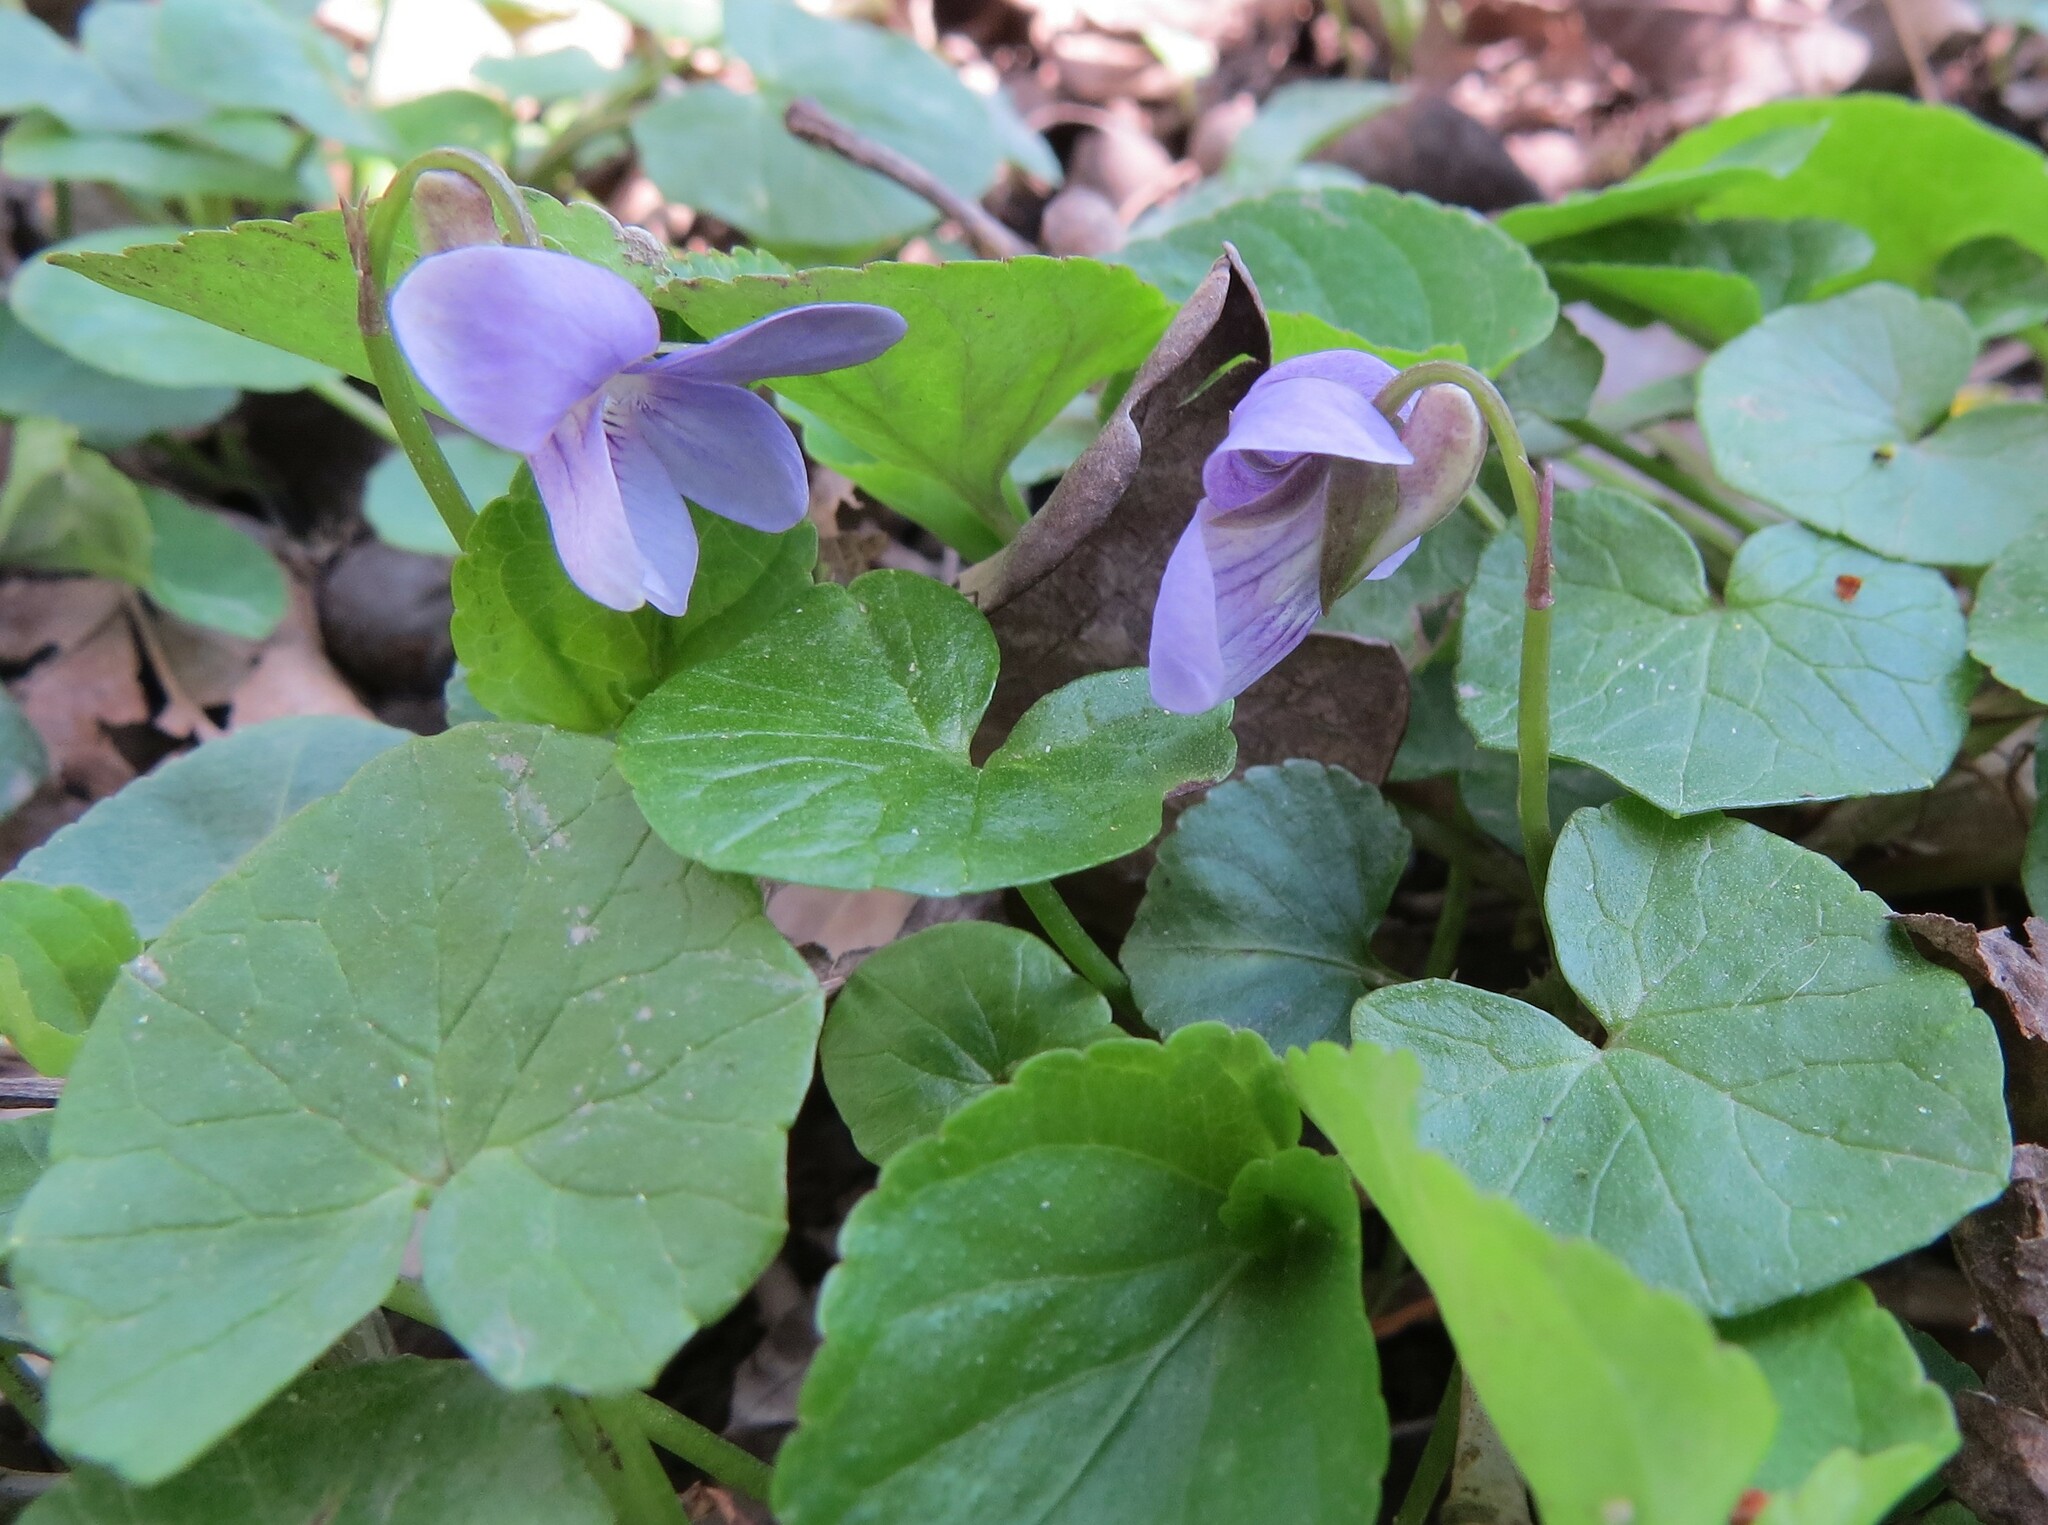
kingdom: Plantae
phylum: Tracheophyta
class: Magnoliopsida
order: Malpighiales
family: Violaceae
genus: Viola
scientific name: Viola riviniana
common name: Common dog-violet
